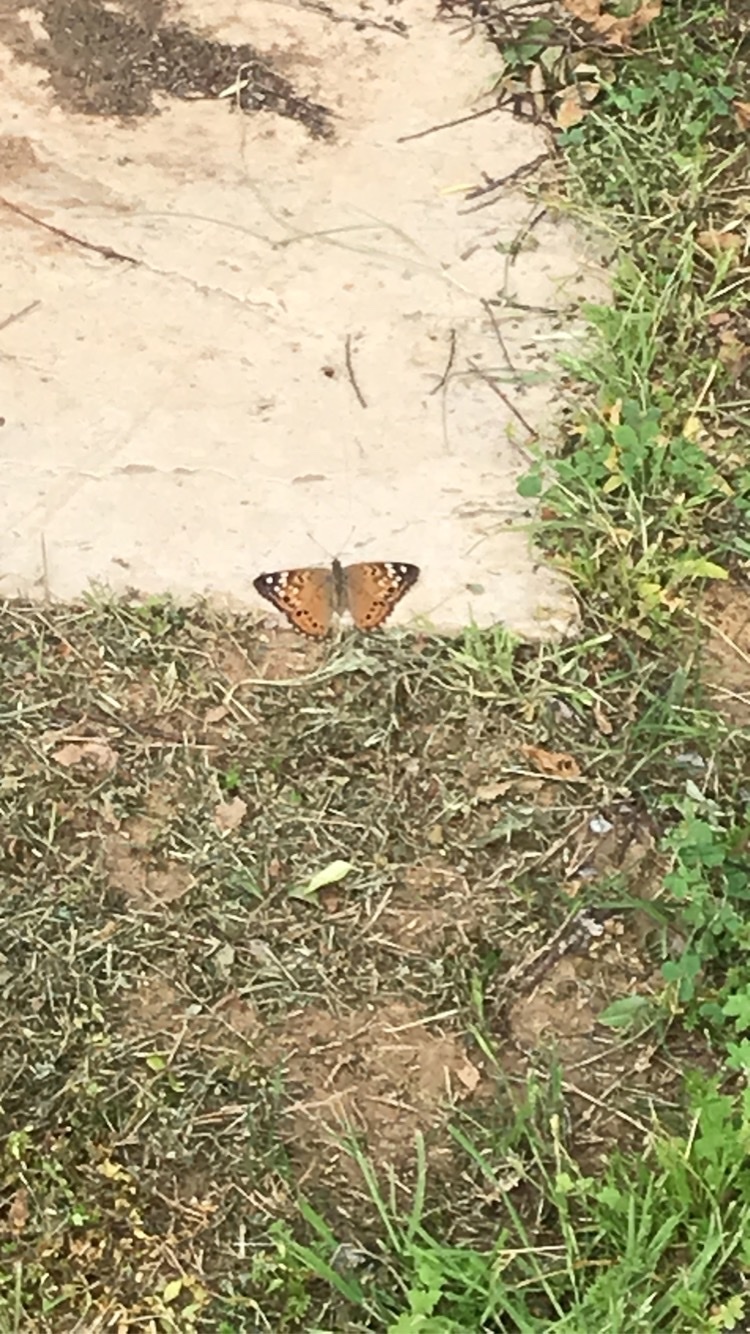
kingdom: Animalia
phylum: Arthropoda
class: Insecta
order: Lepidoptera
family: Nymphalidae
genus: Asterocampa
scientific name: Asterocampa celtis
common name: Hackberry emperor
